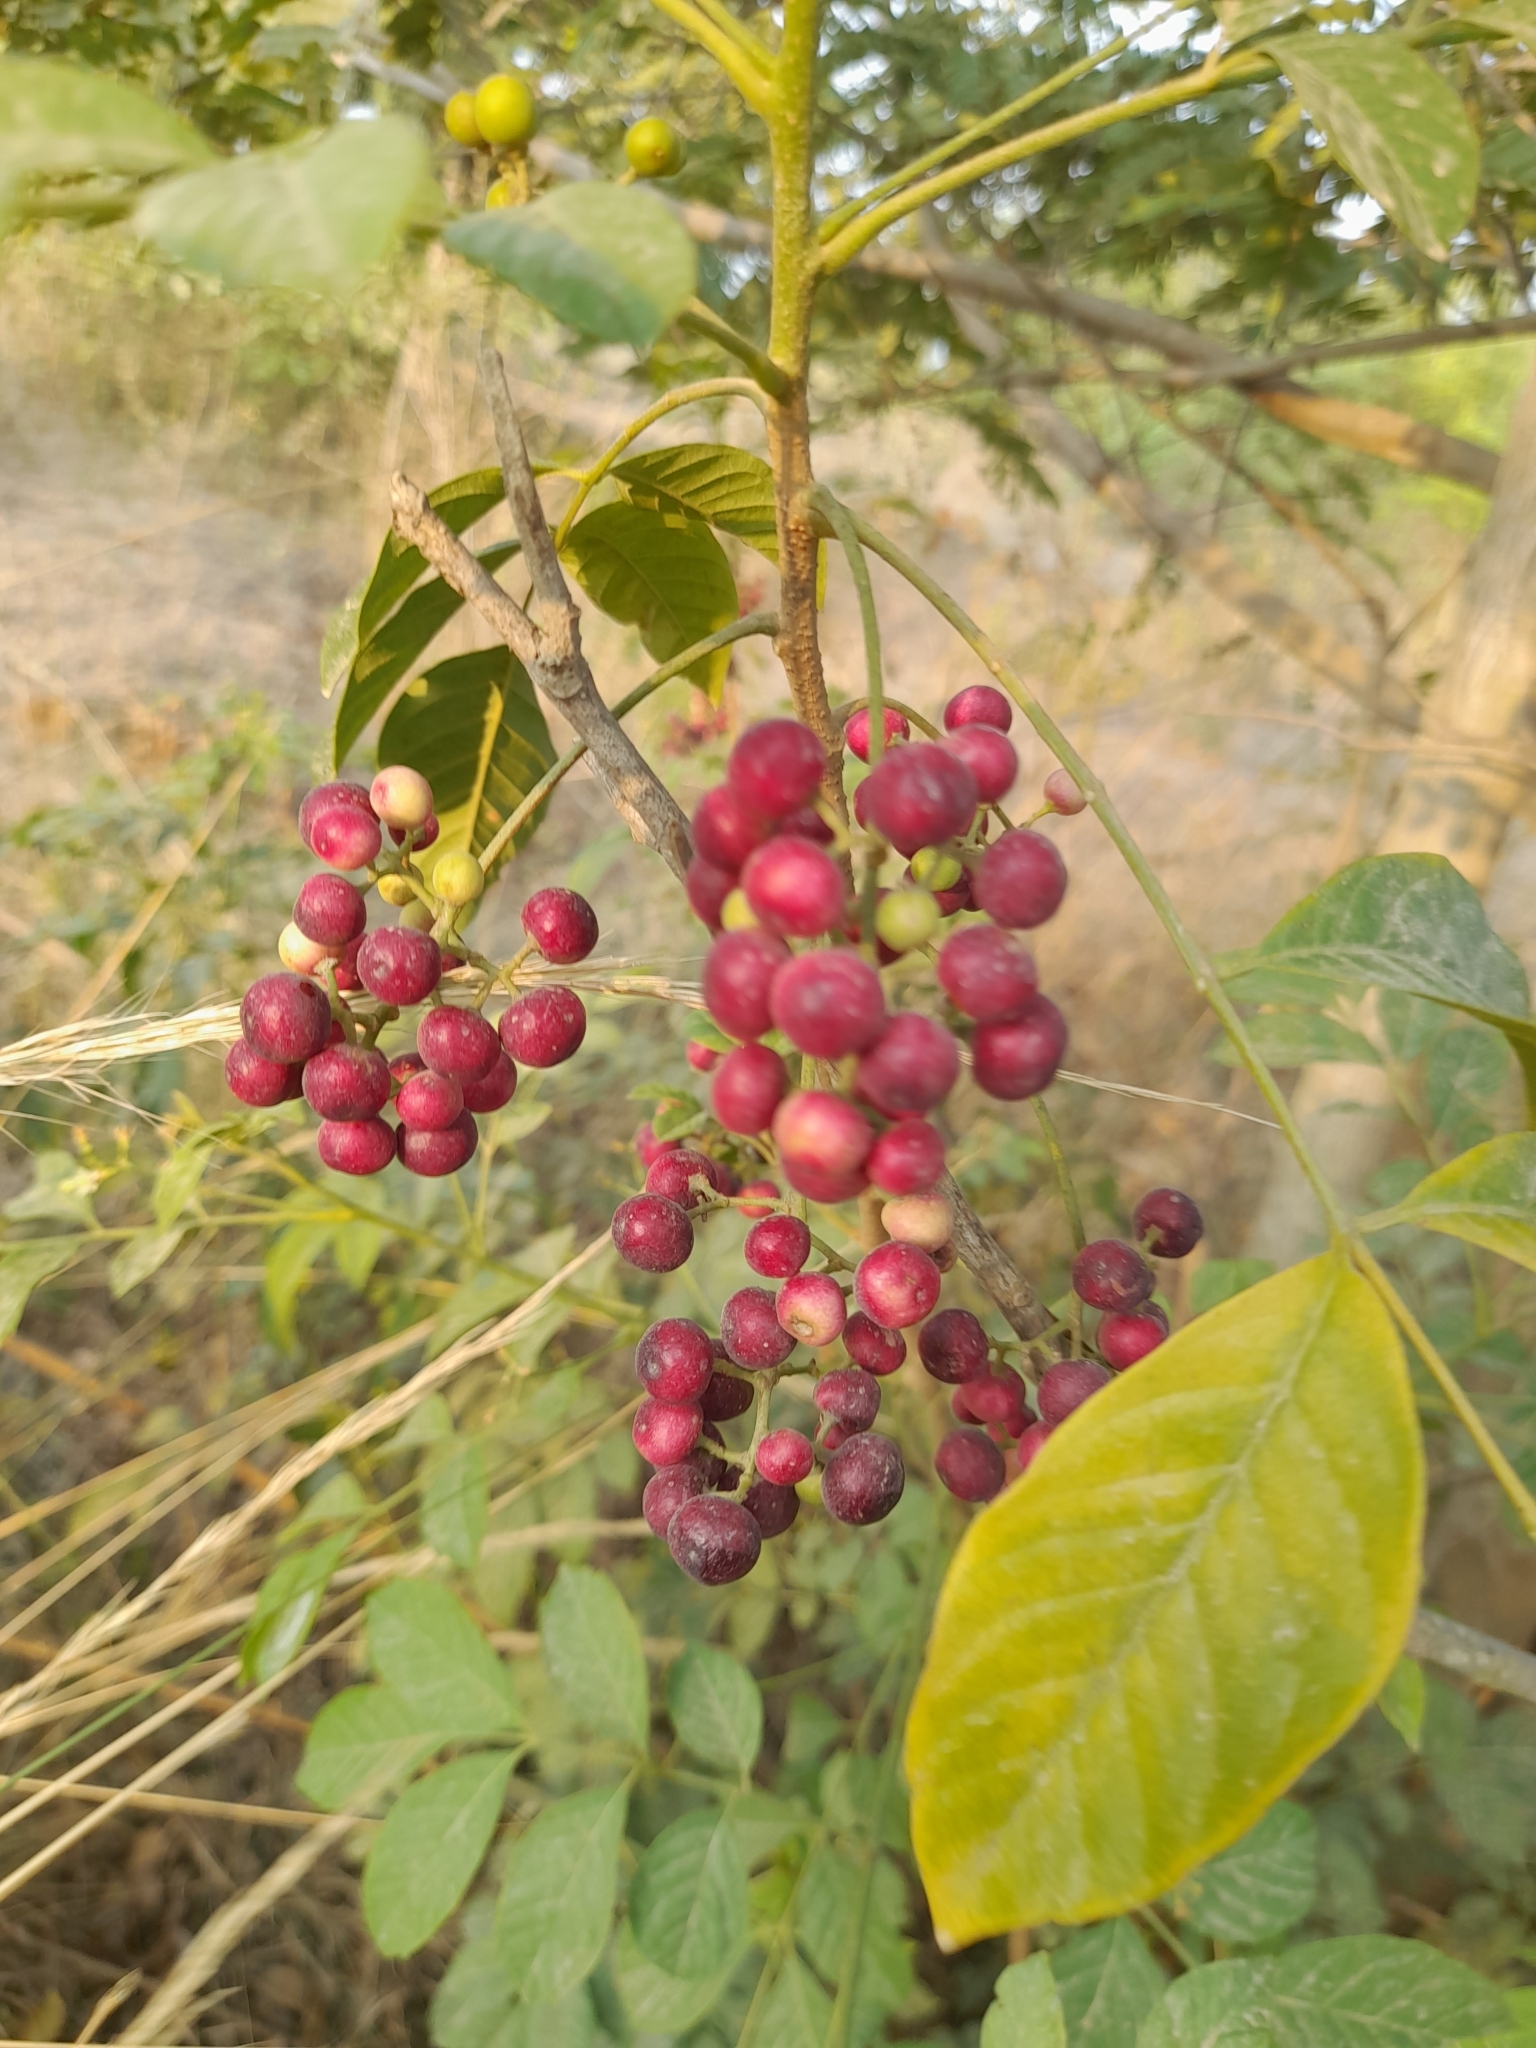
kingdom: Plantae
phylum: Tracheophyta
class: Magnoliopsida
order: Sapindales
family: Meliaceae
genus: Cipadessa
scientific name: Cipadessa baccifera
